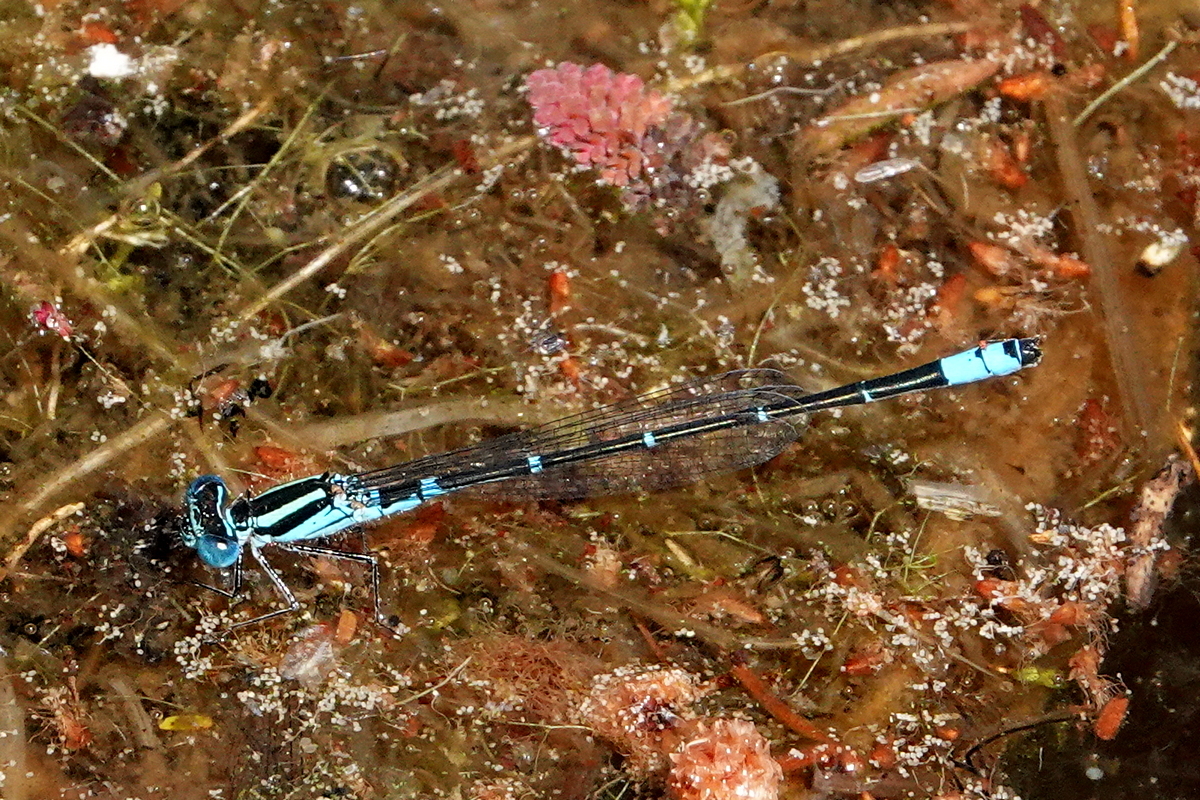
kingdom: Animalia
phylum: Arthropoda
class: Insecta
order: Odonata
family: Coenagrionidae
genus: Austroagrion
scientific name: Austroagrion watsoni
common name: Eastern billabongfly
